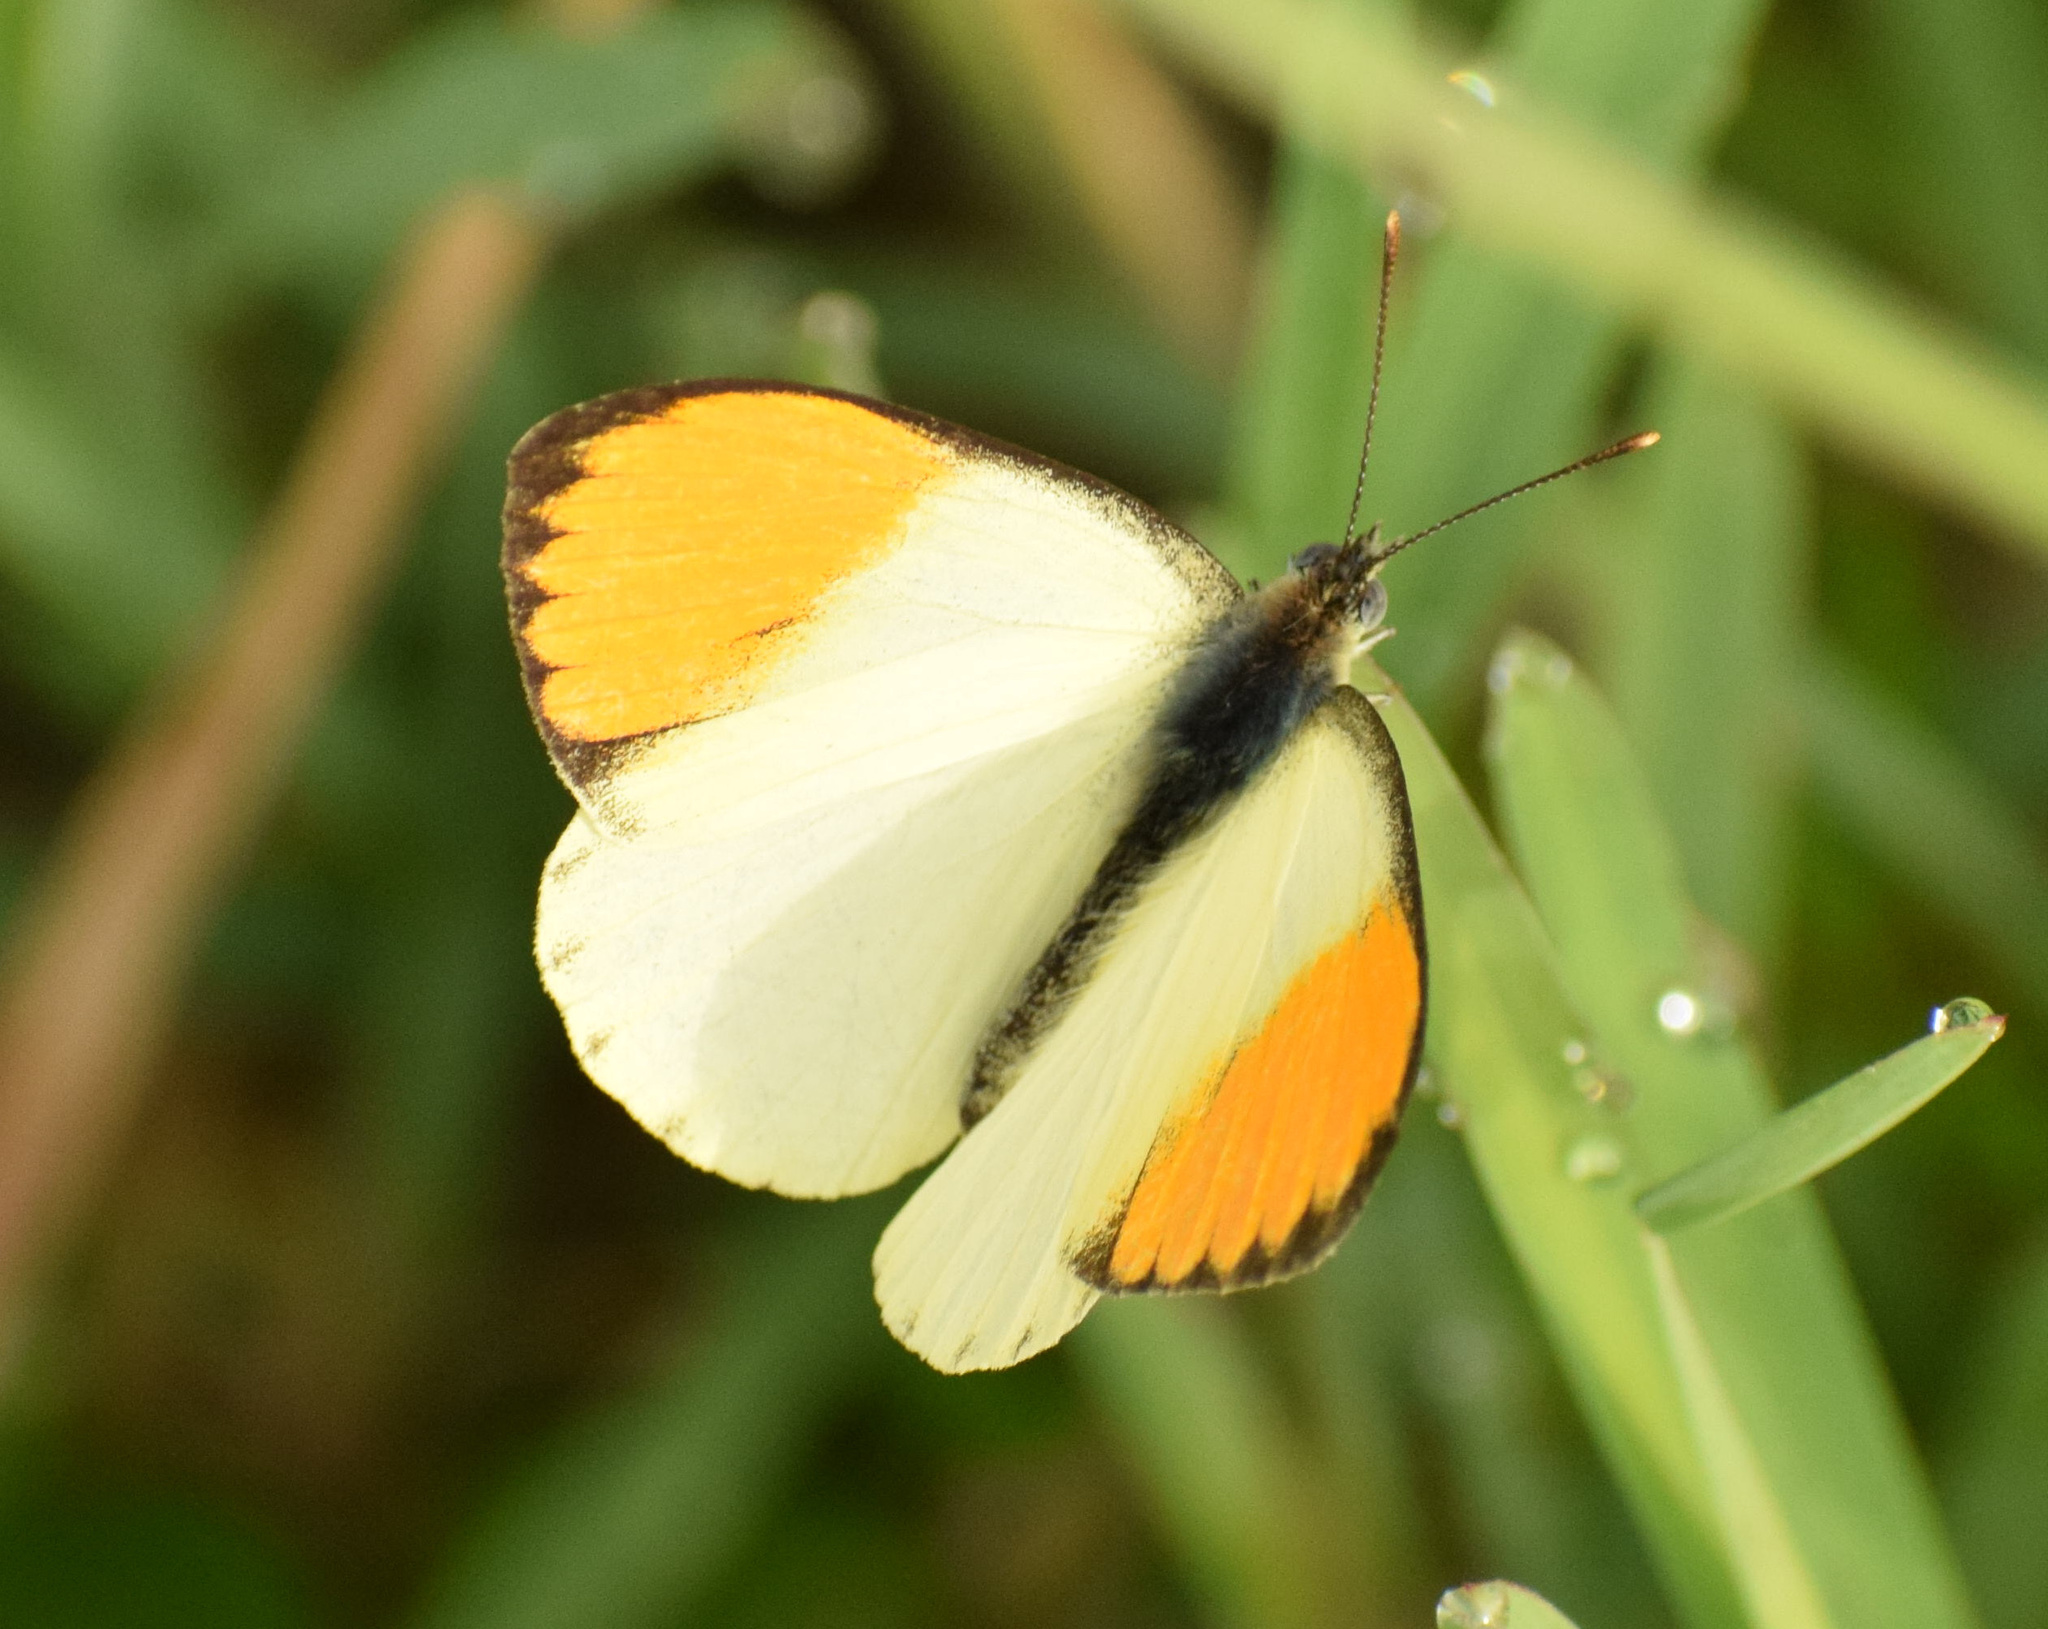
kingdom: Animalia
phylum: Arthropoda
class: Insecta
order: Lepidoptera
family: Pieridae
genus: Colotis
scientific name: Colotis auxo
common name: Sulphur orange tip
